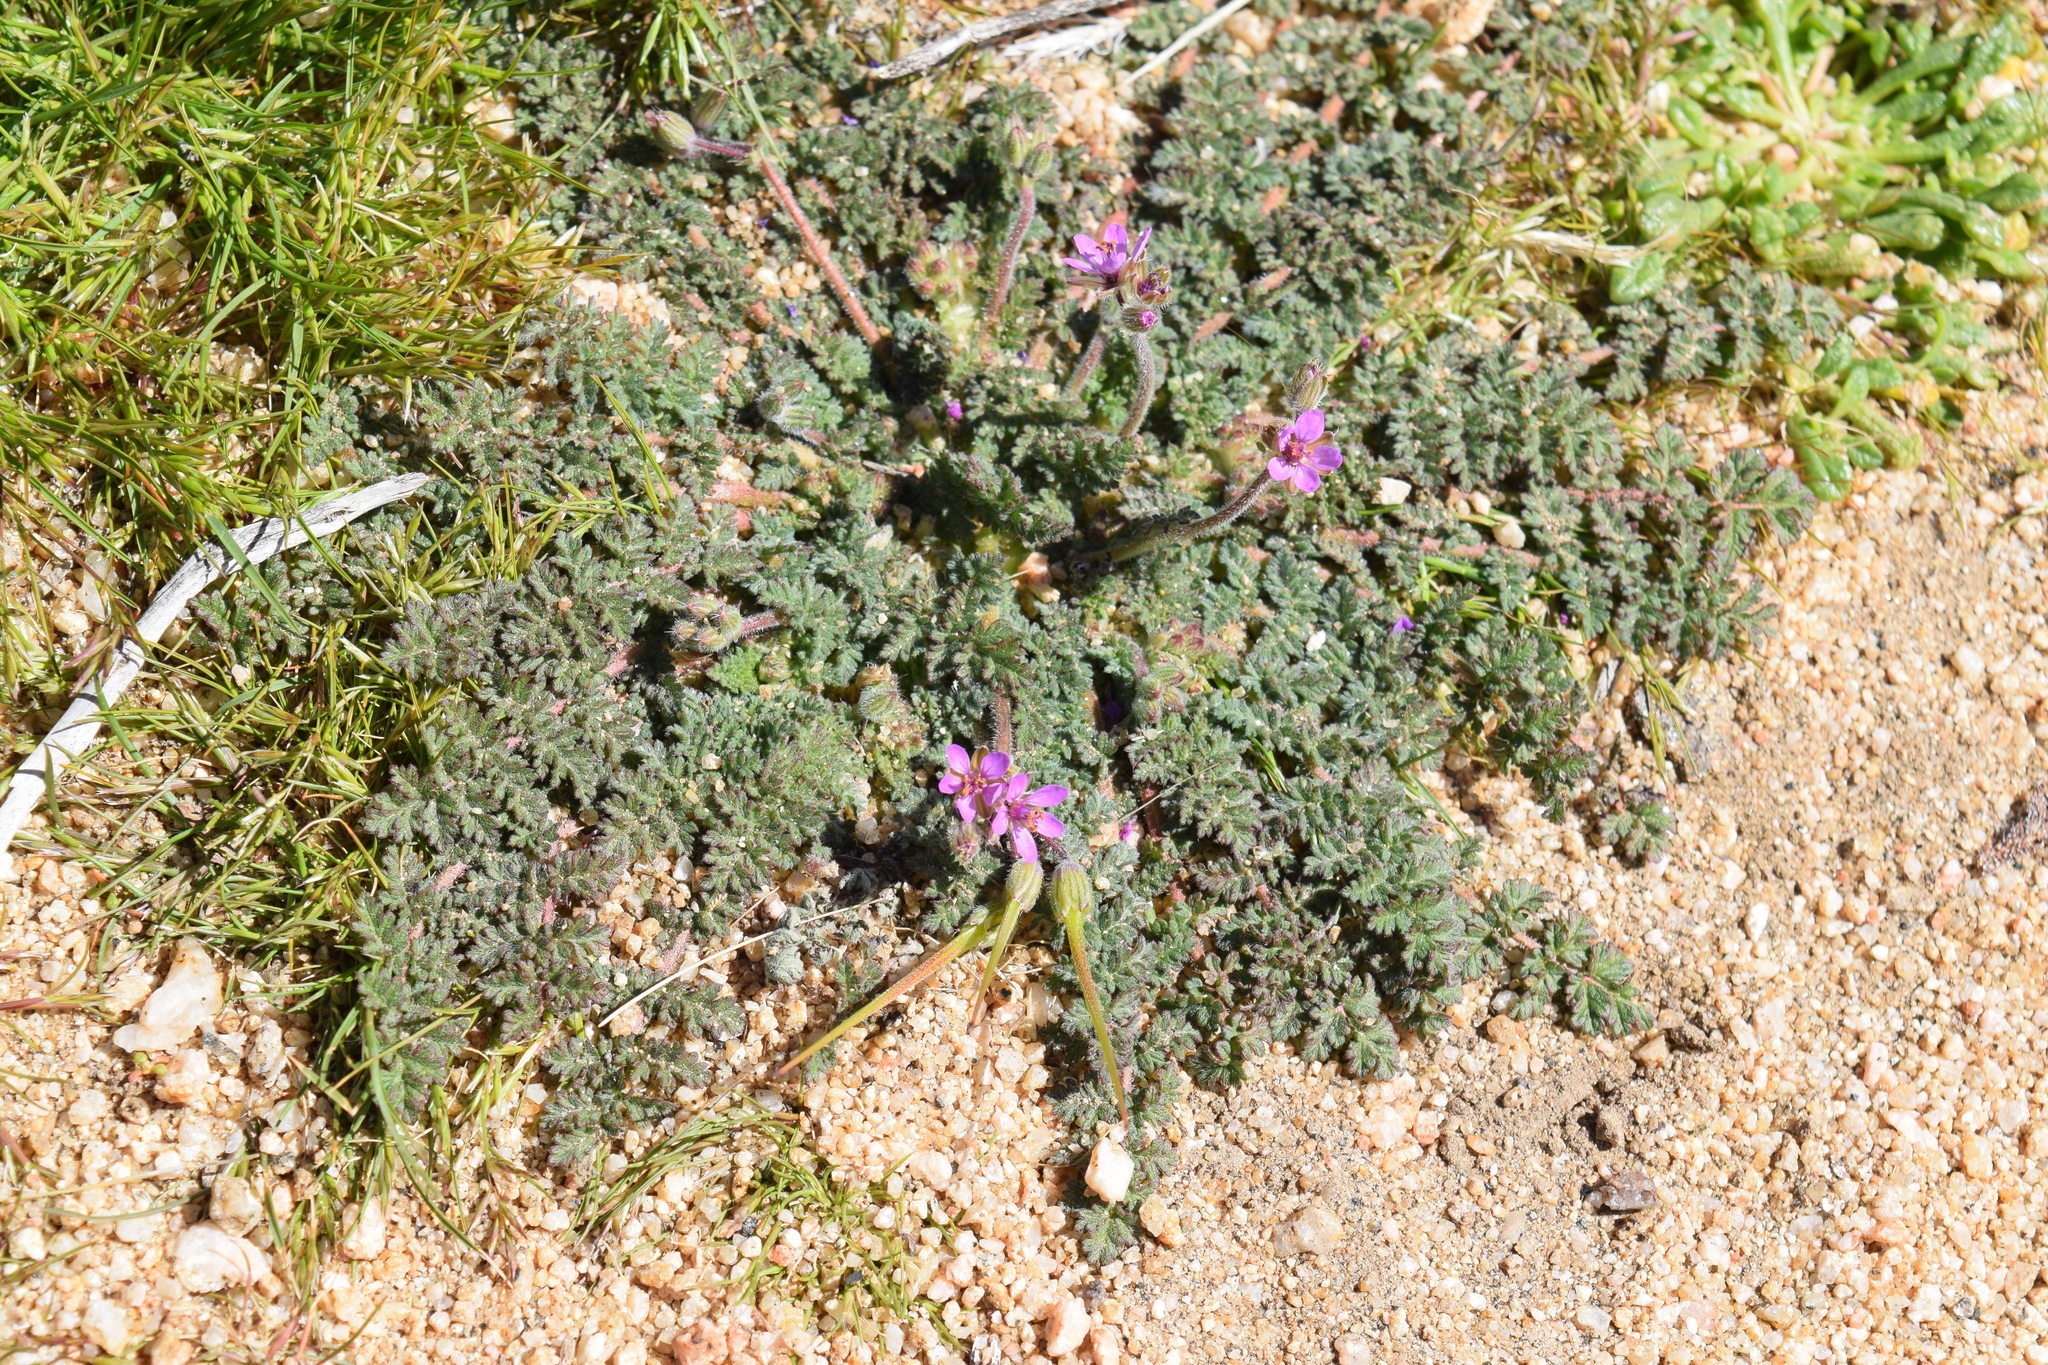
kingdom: Plantae
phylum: Tracheophyta
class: Magnoliopsida
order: Geraniales
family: Geraniaceae
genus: Erodium
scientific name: Erodium cicutarium
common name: Common stork's-bill
